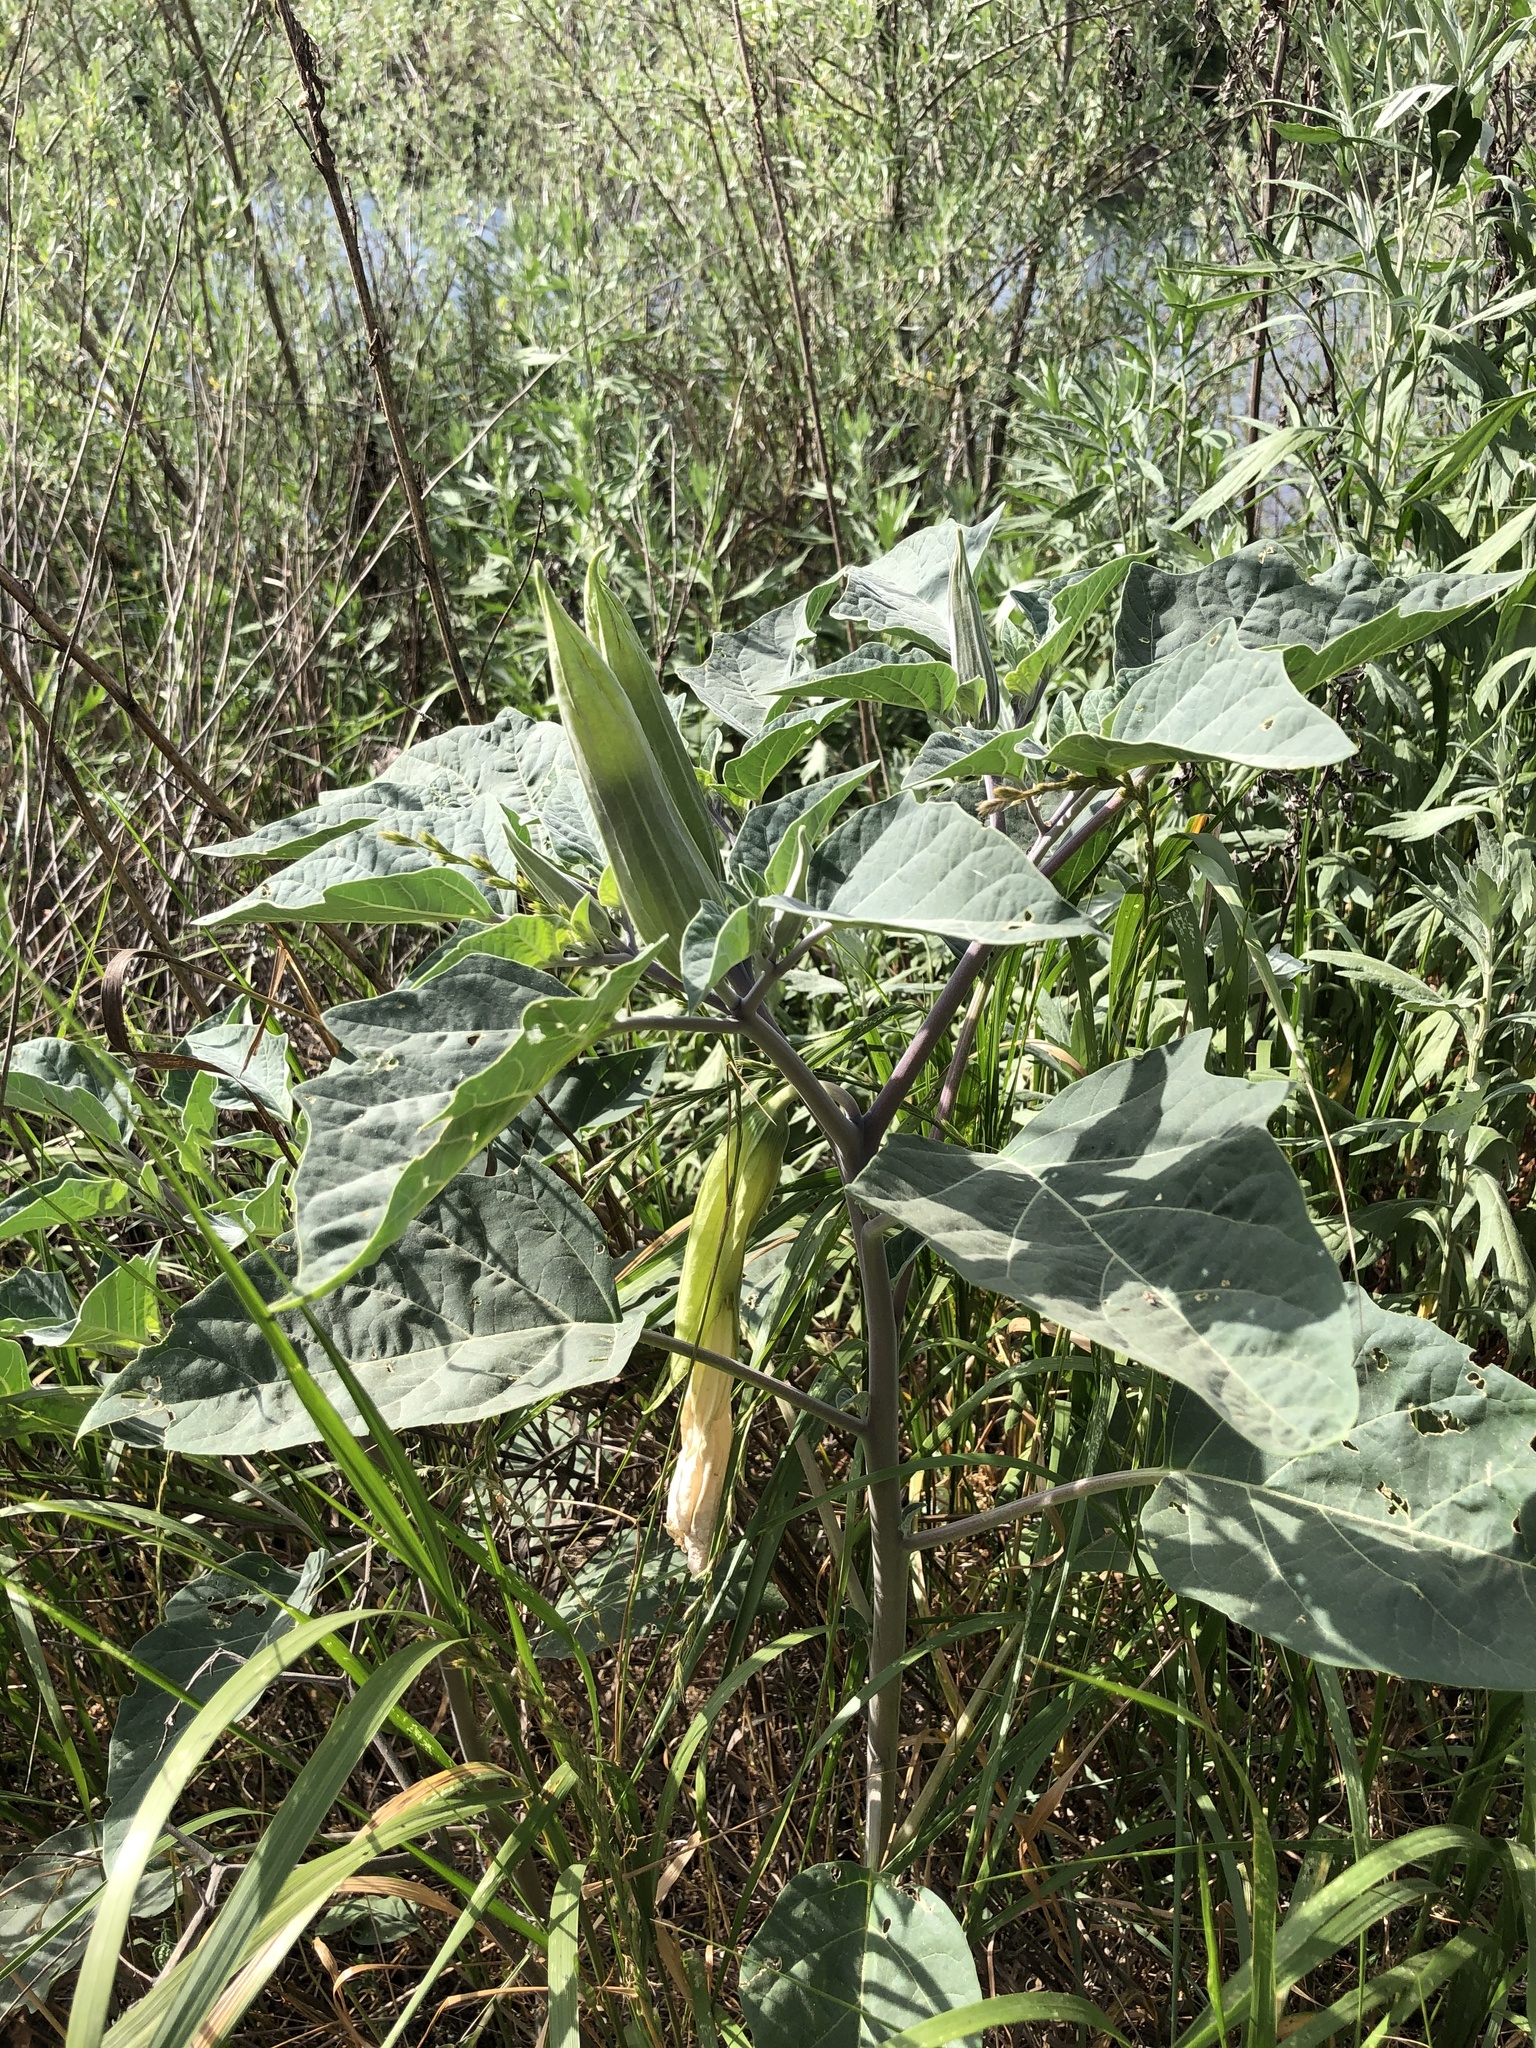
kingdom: Plantae
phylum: Tracheophyta
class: Magnoliopsida
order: Solanales
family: Solanaceae
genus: Datura
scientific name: Datura wrightii
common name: Sacred thorn-apple
